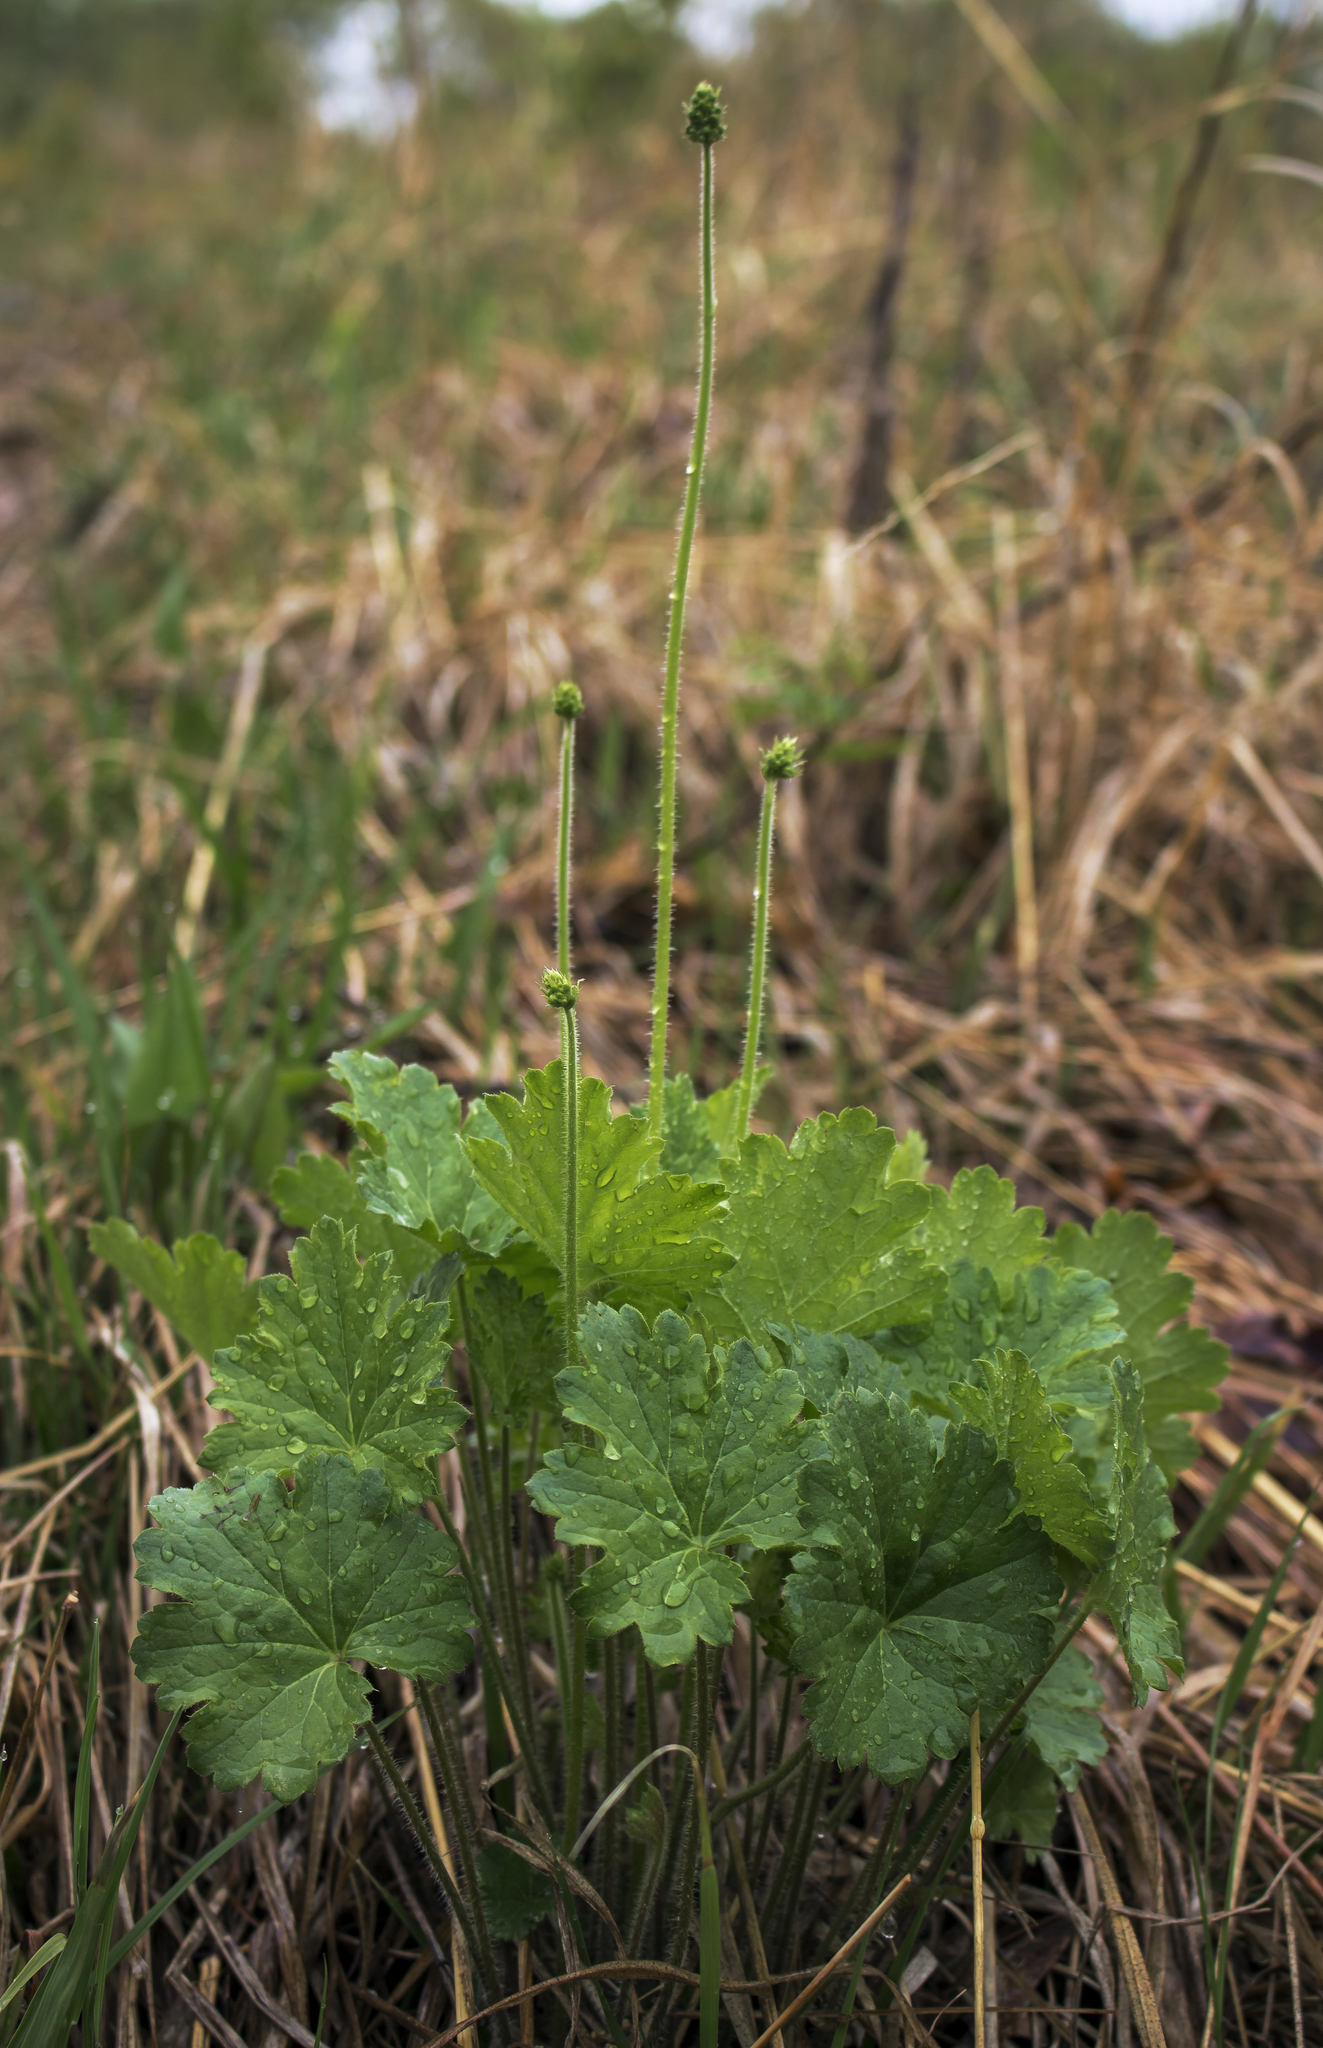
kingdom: Plantae
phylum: Tracheophyta
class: Magnoliopsida
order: Saxifragales
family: Saxifragaceae
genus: Heuchera
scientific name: Heuchera richardsonii
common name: Richardson's alumroot
